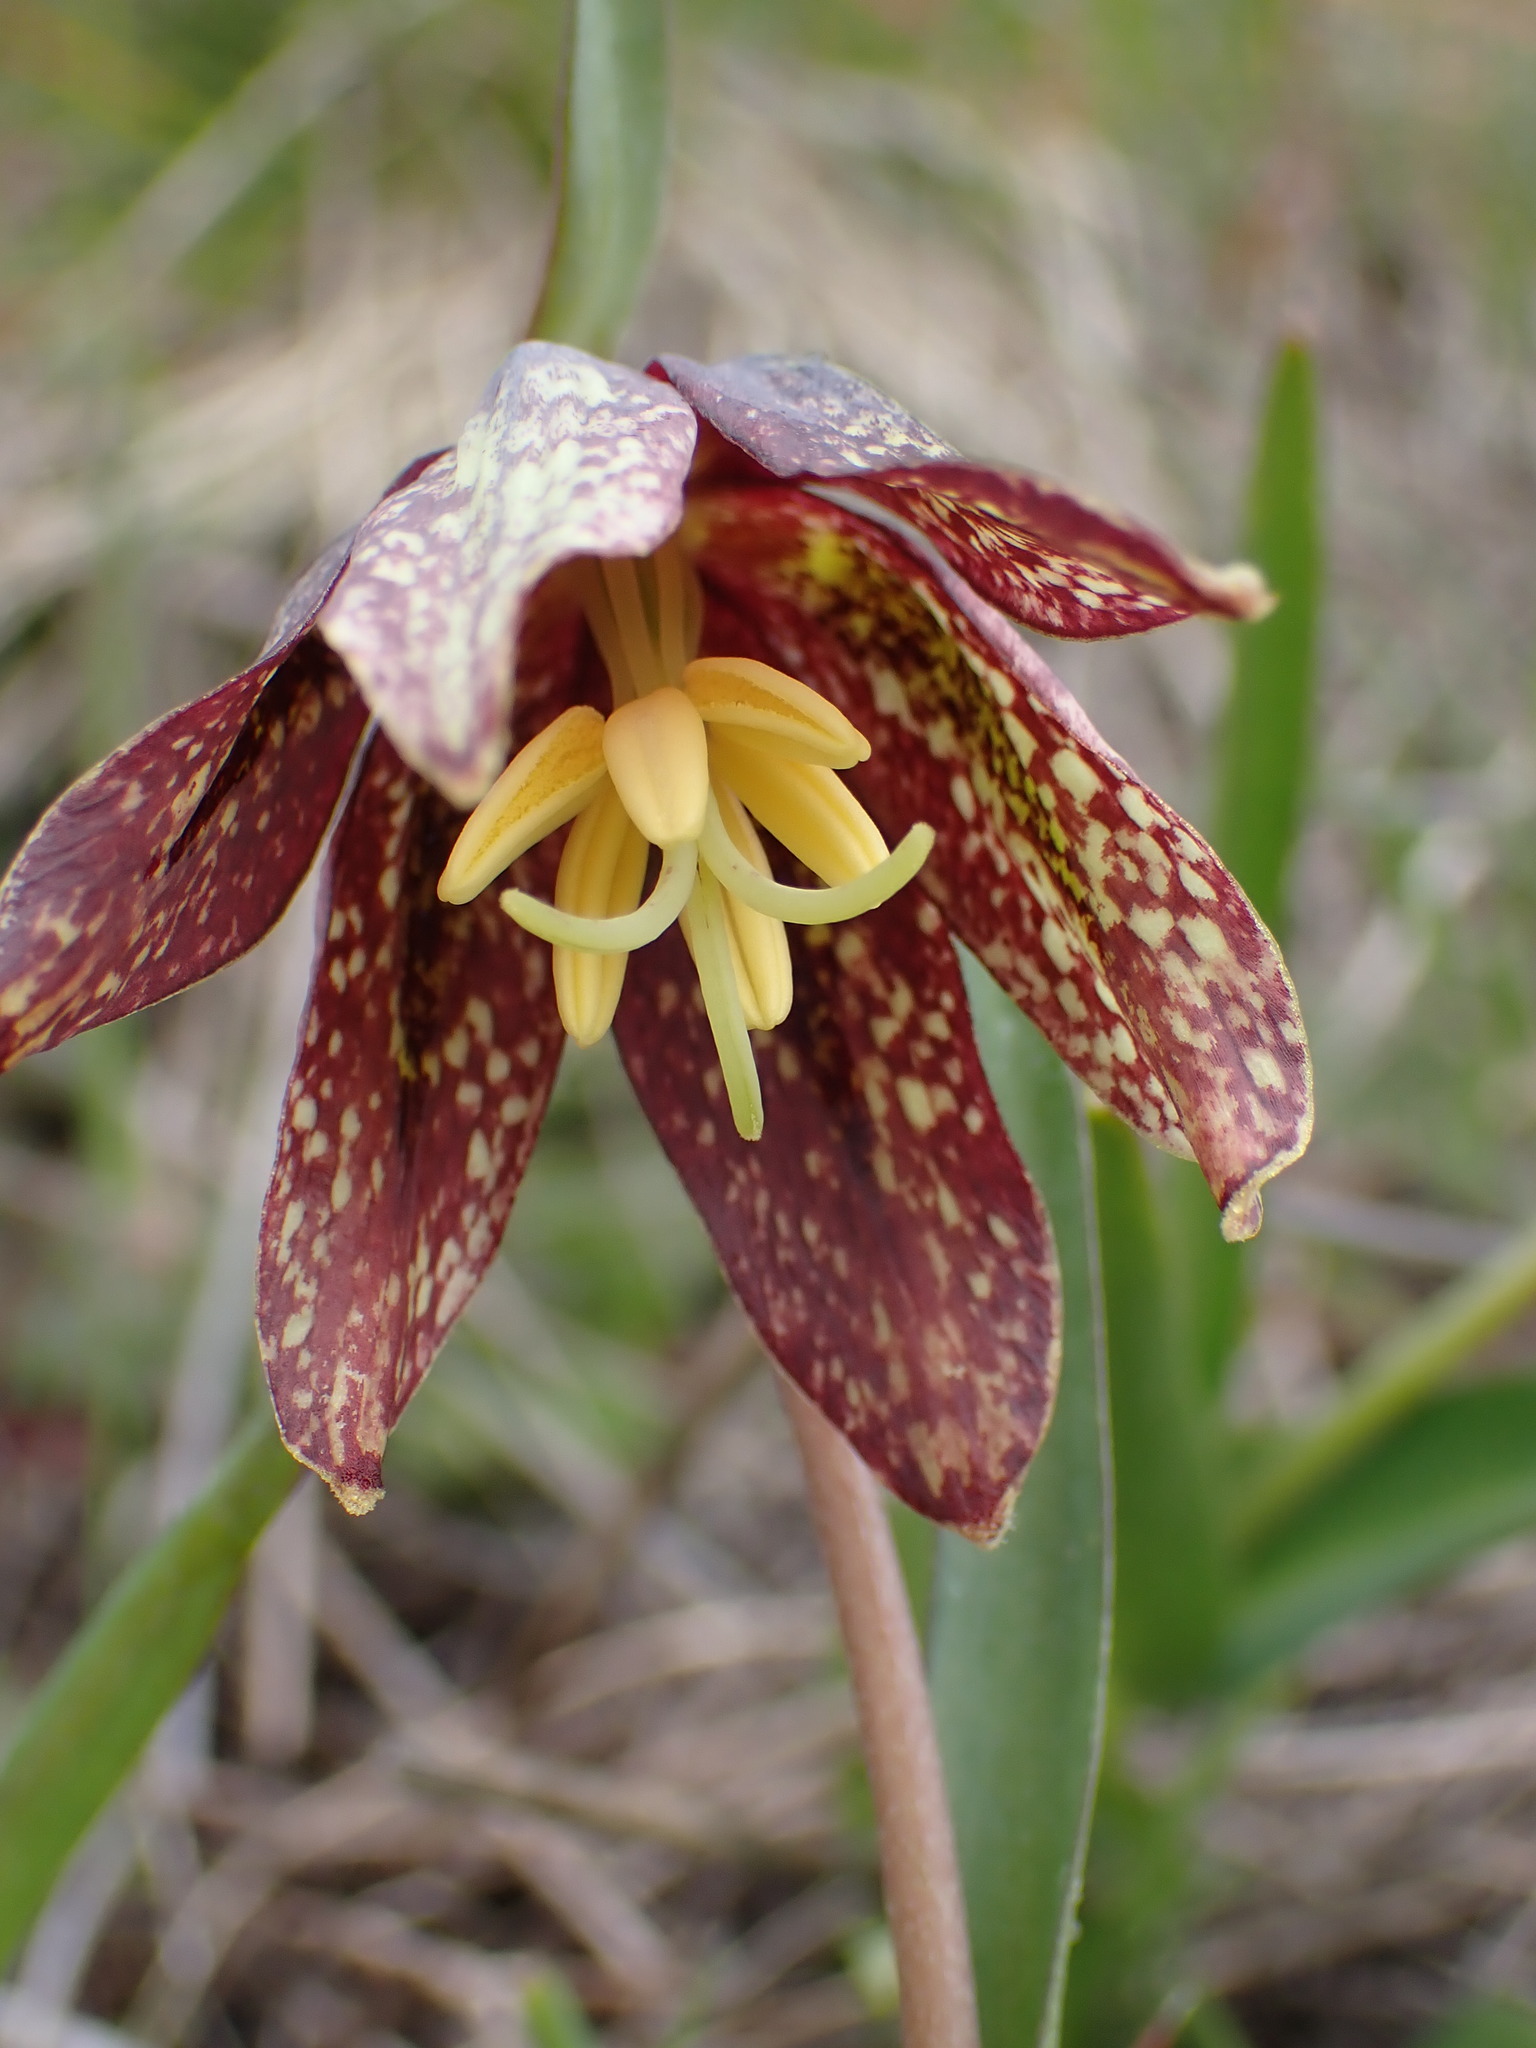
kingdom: Plantae
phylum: Tracheophyta
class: Liliopsida
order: Liliales
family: Liliaceae
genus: Fritillaria
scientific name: Fritillaria affinis
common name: Ojai fritillary
